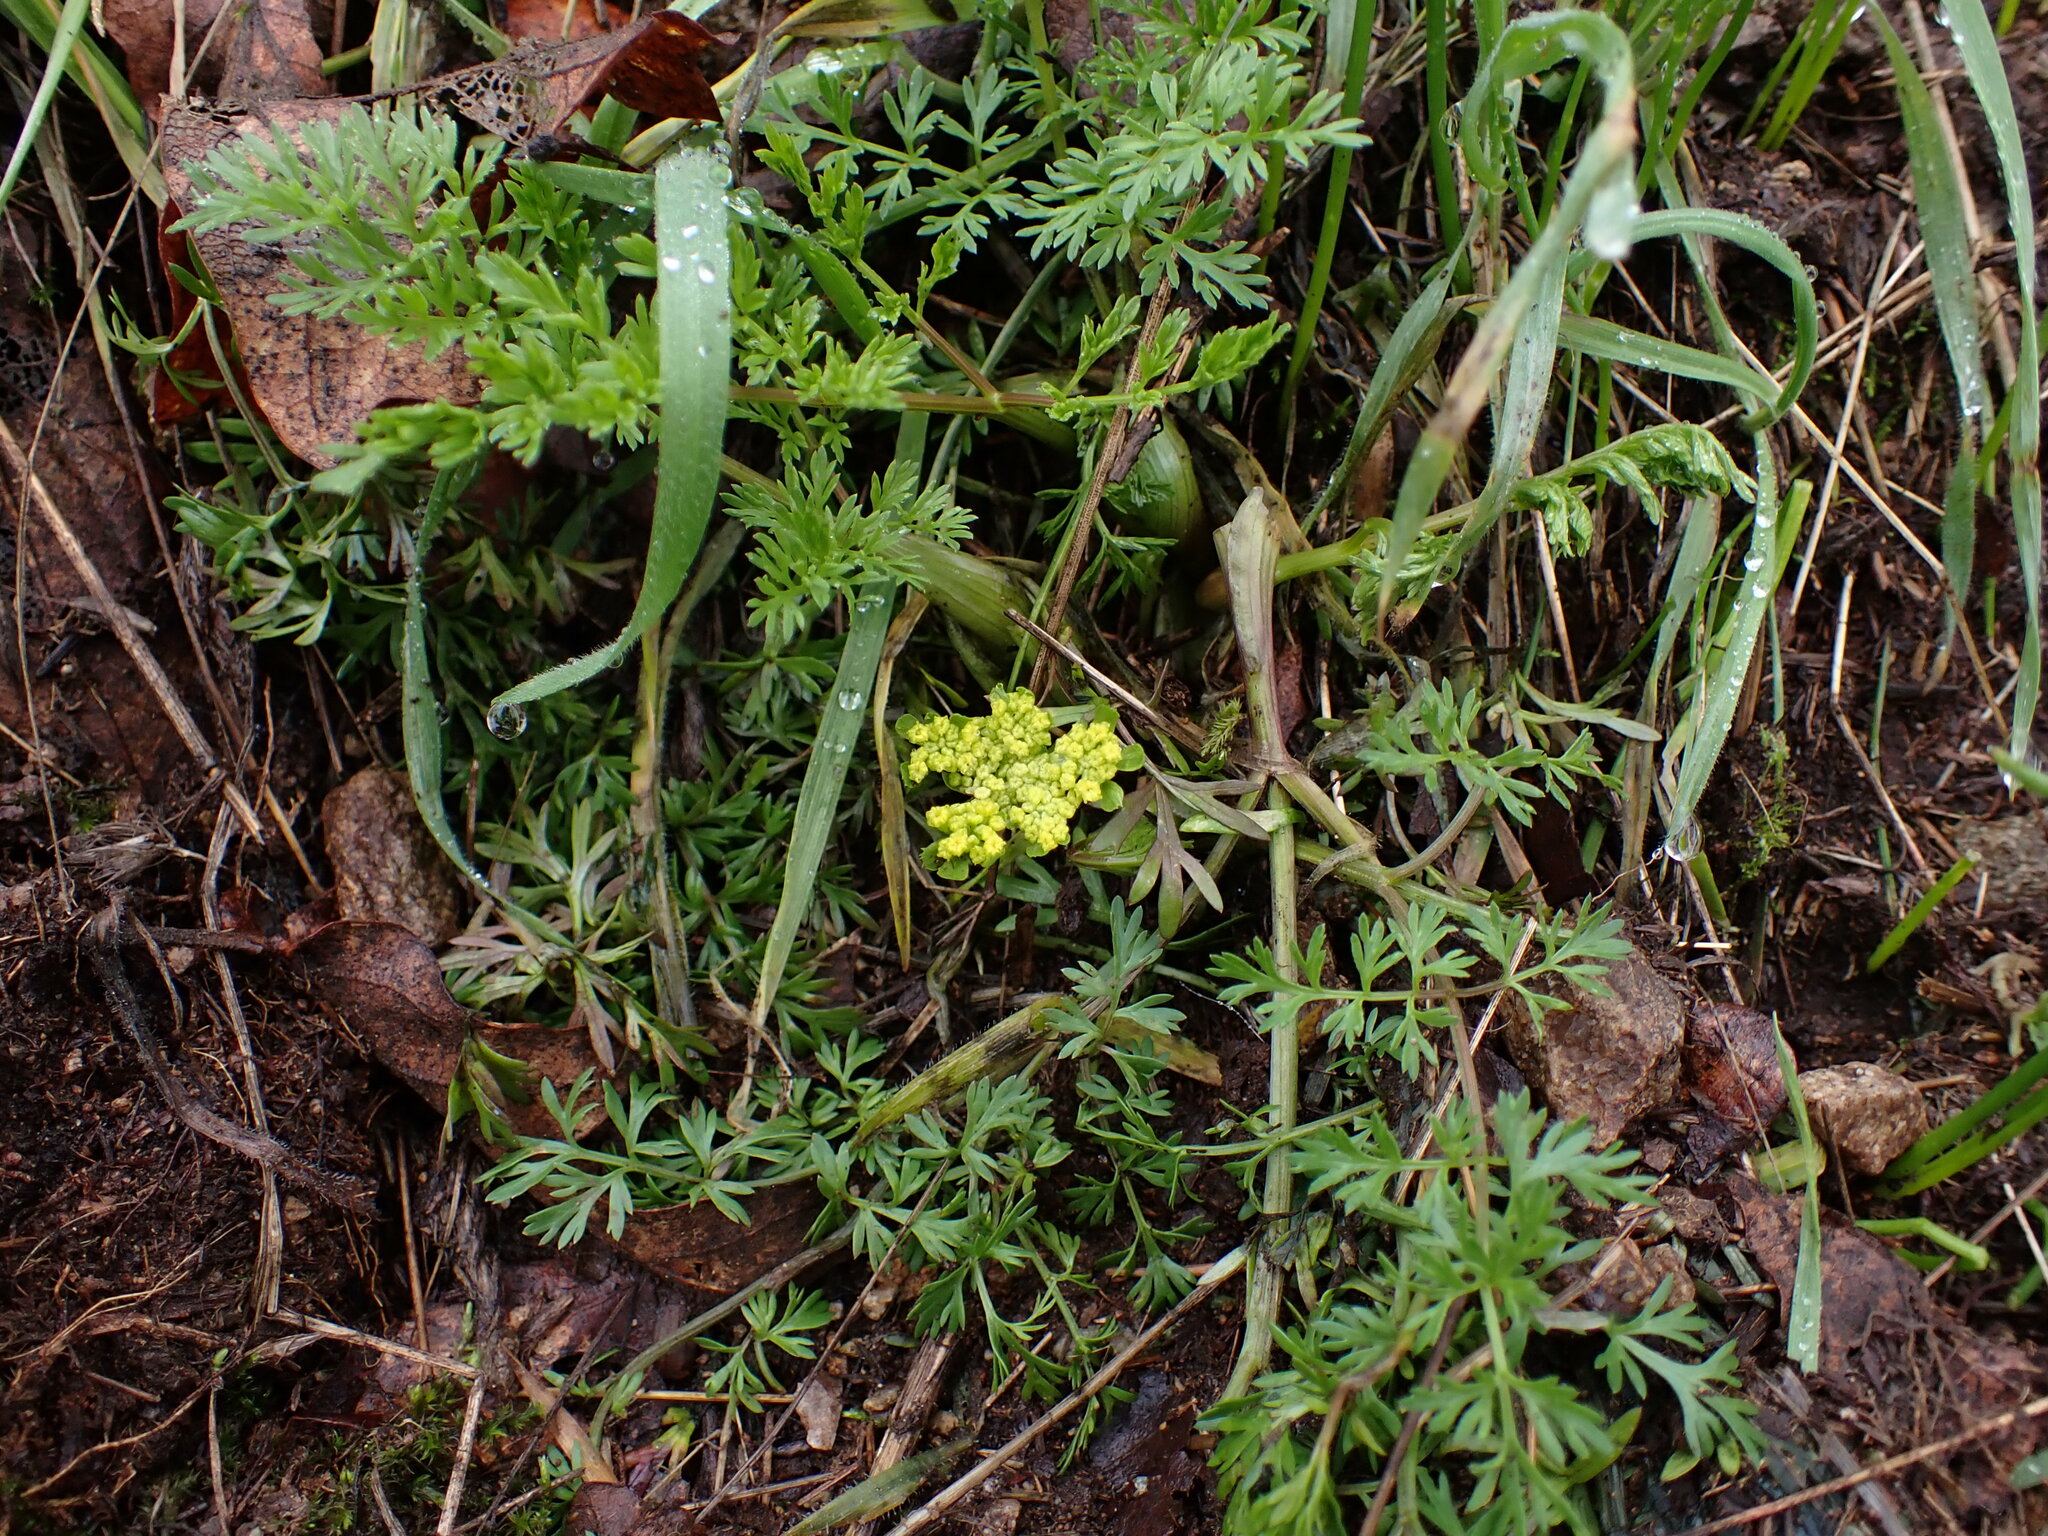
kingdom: Plantae
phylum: Tracheophyta
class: Magnoliopsida
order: Apiales
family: Apiaceae
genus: Lomatium
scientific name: Lomatium utriculatum
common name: Fine-leaf desert-parsley
